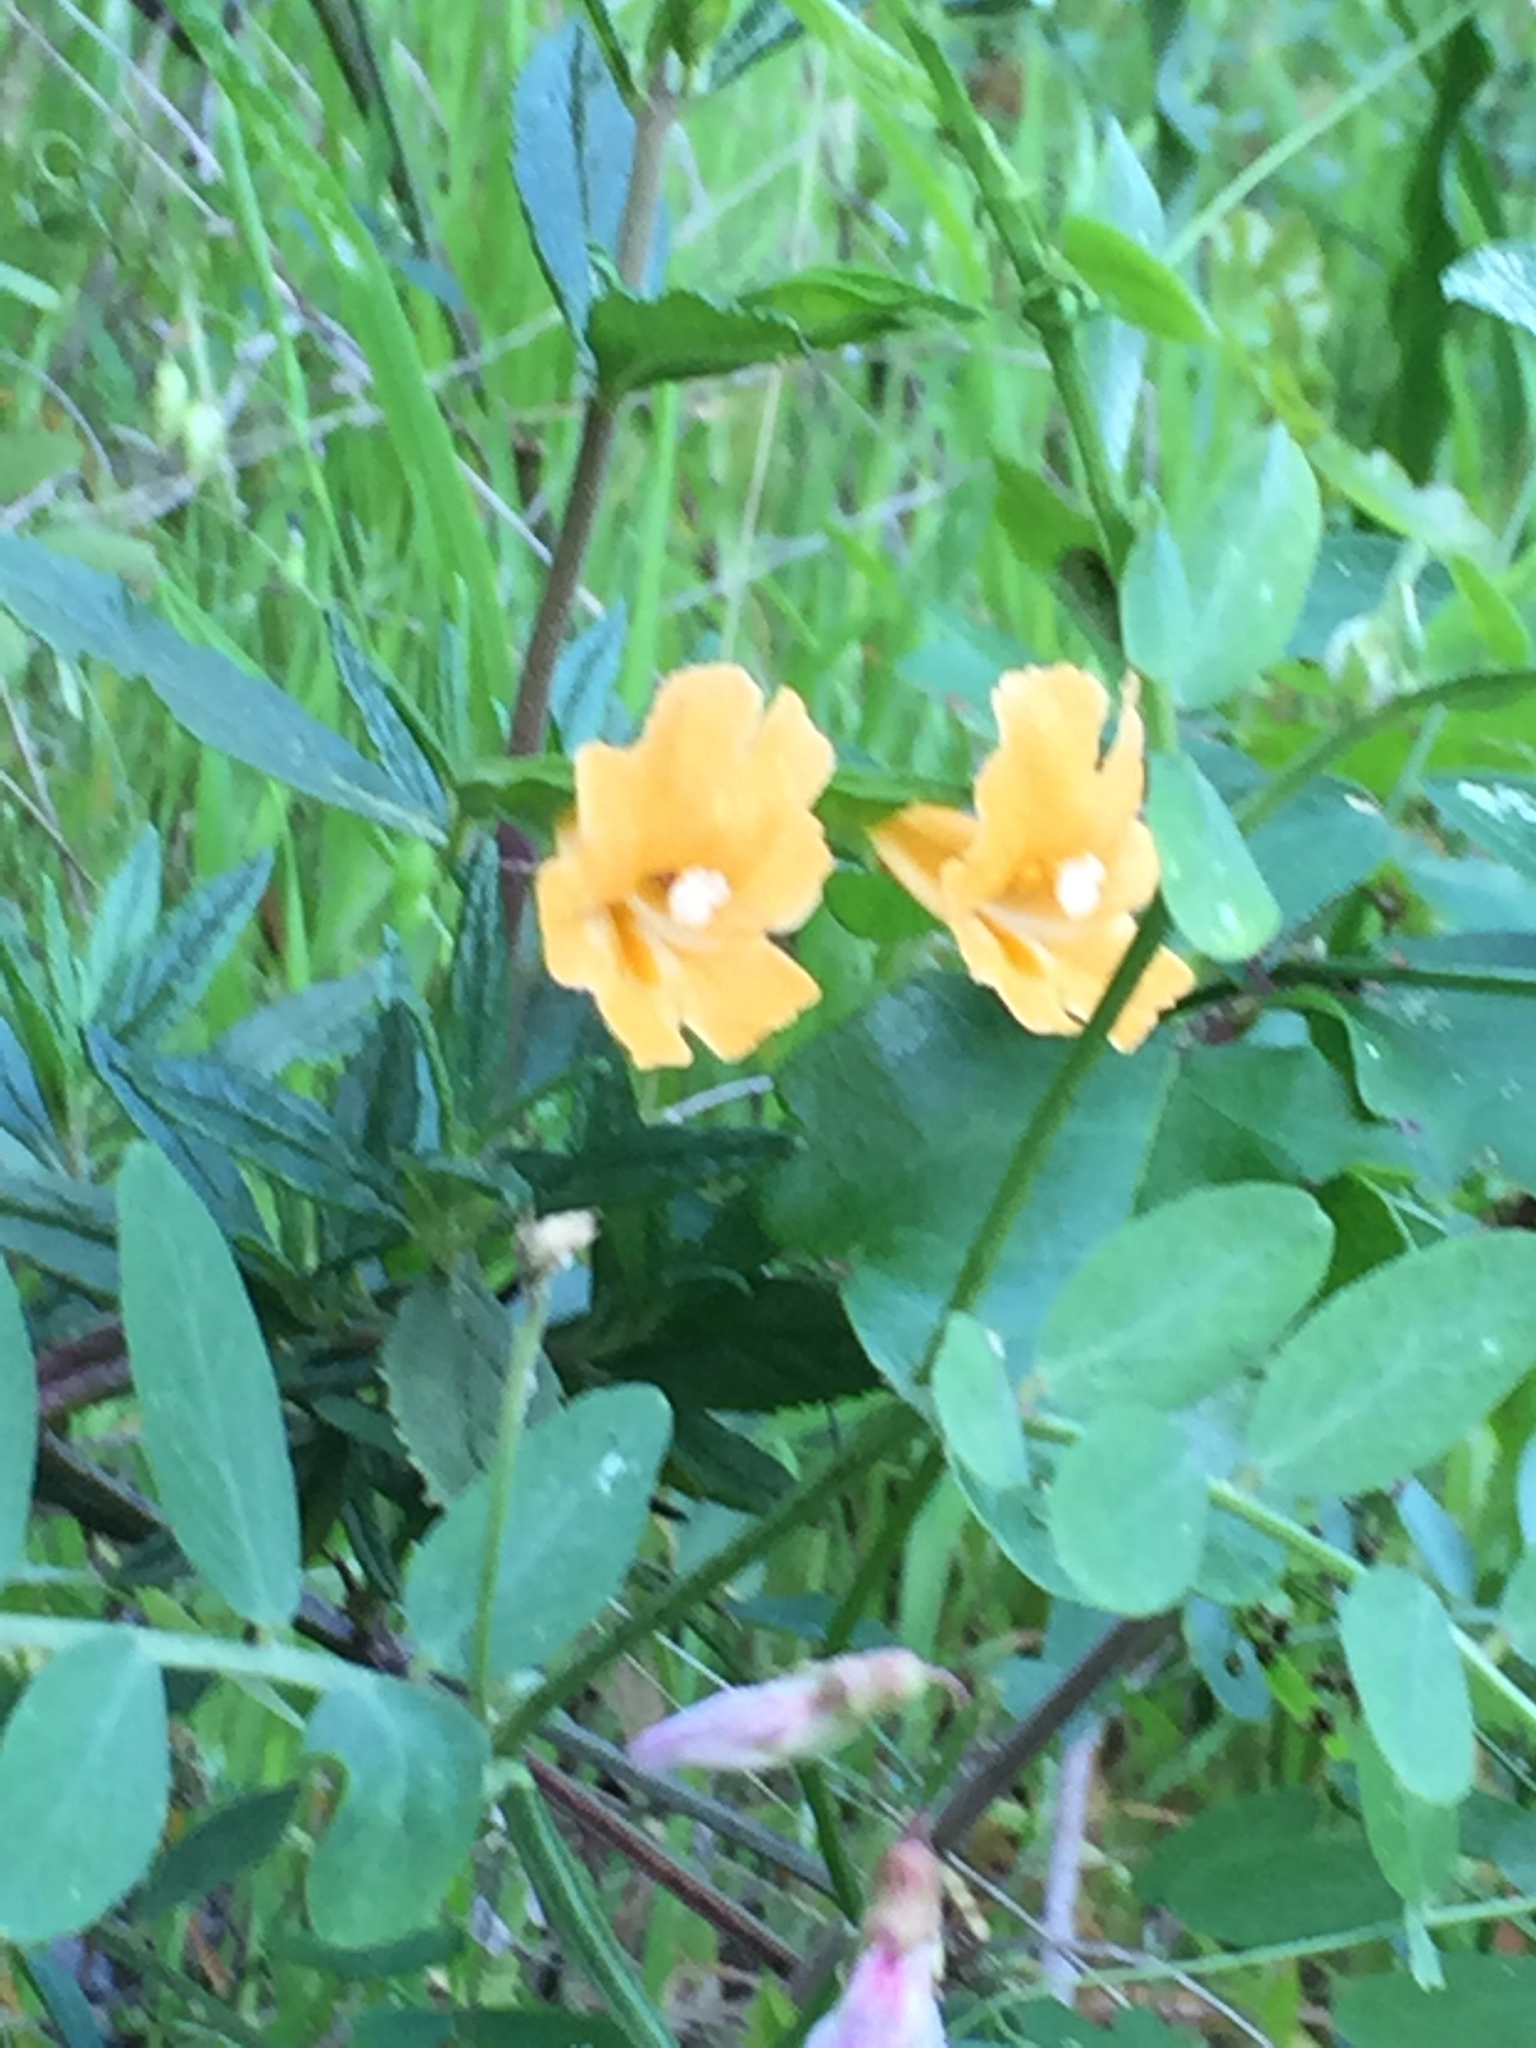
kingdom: Plantae
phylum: Tracheophyta
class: Magnoliopsida
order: Lamiales
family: Phrymaceae
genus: Diplacus
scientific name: Diplacus aurantiacus
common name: Bush monkey-flower
